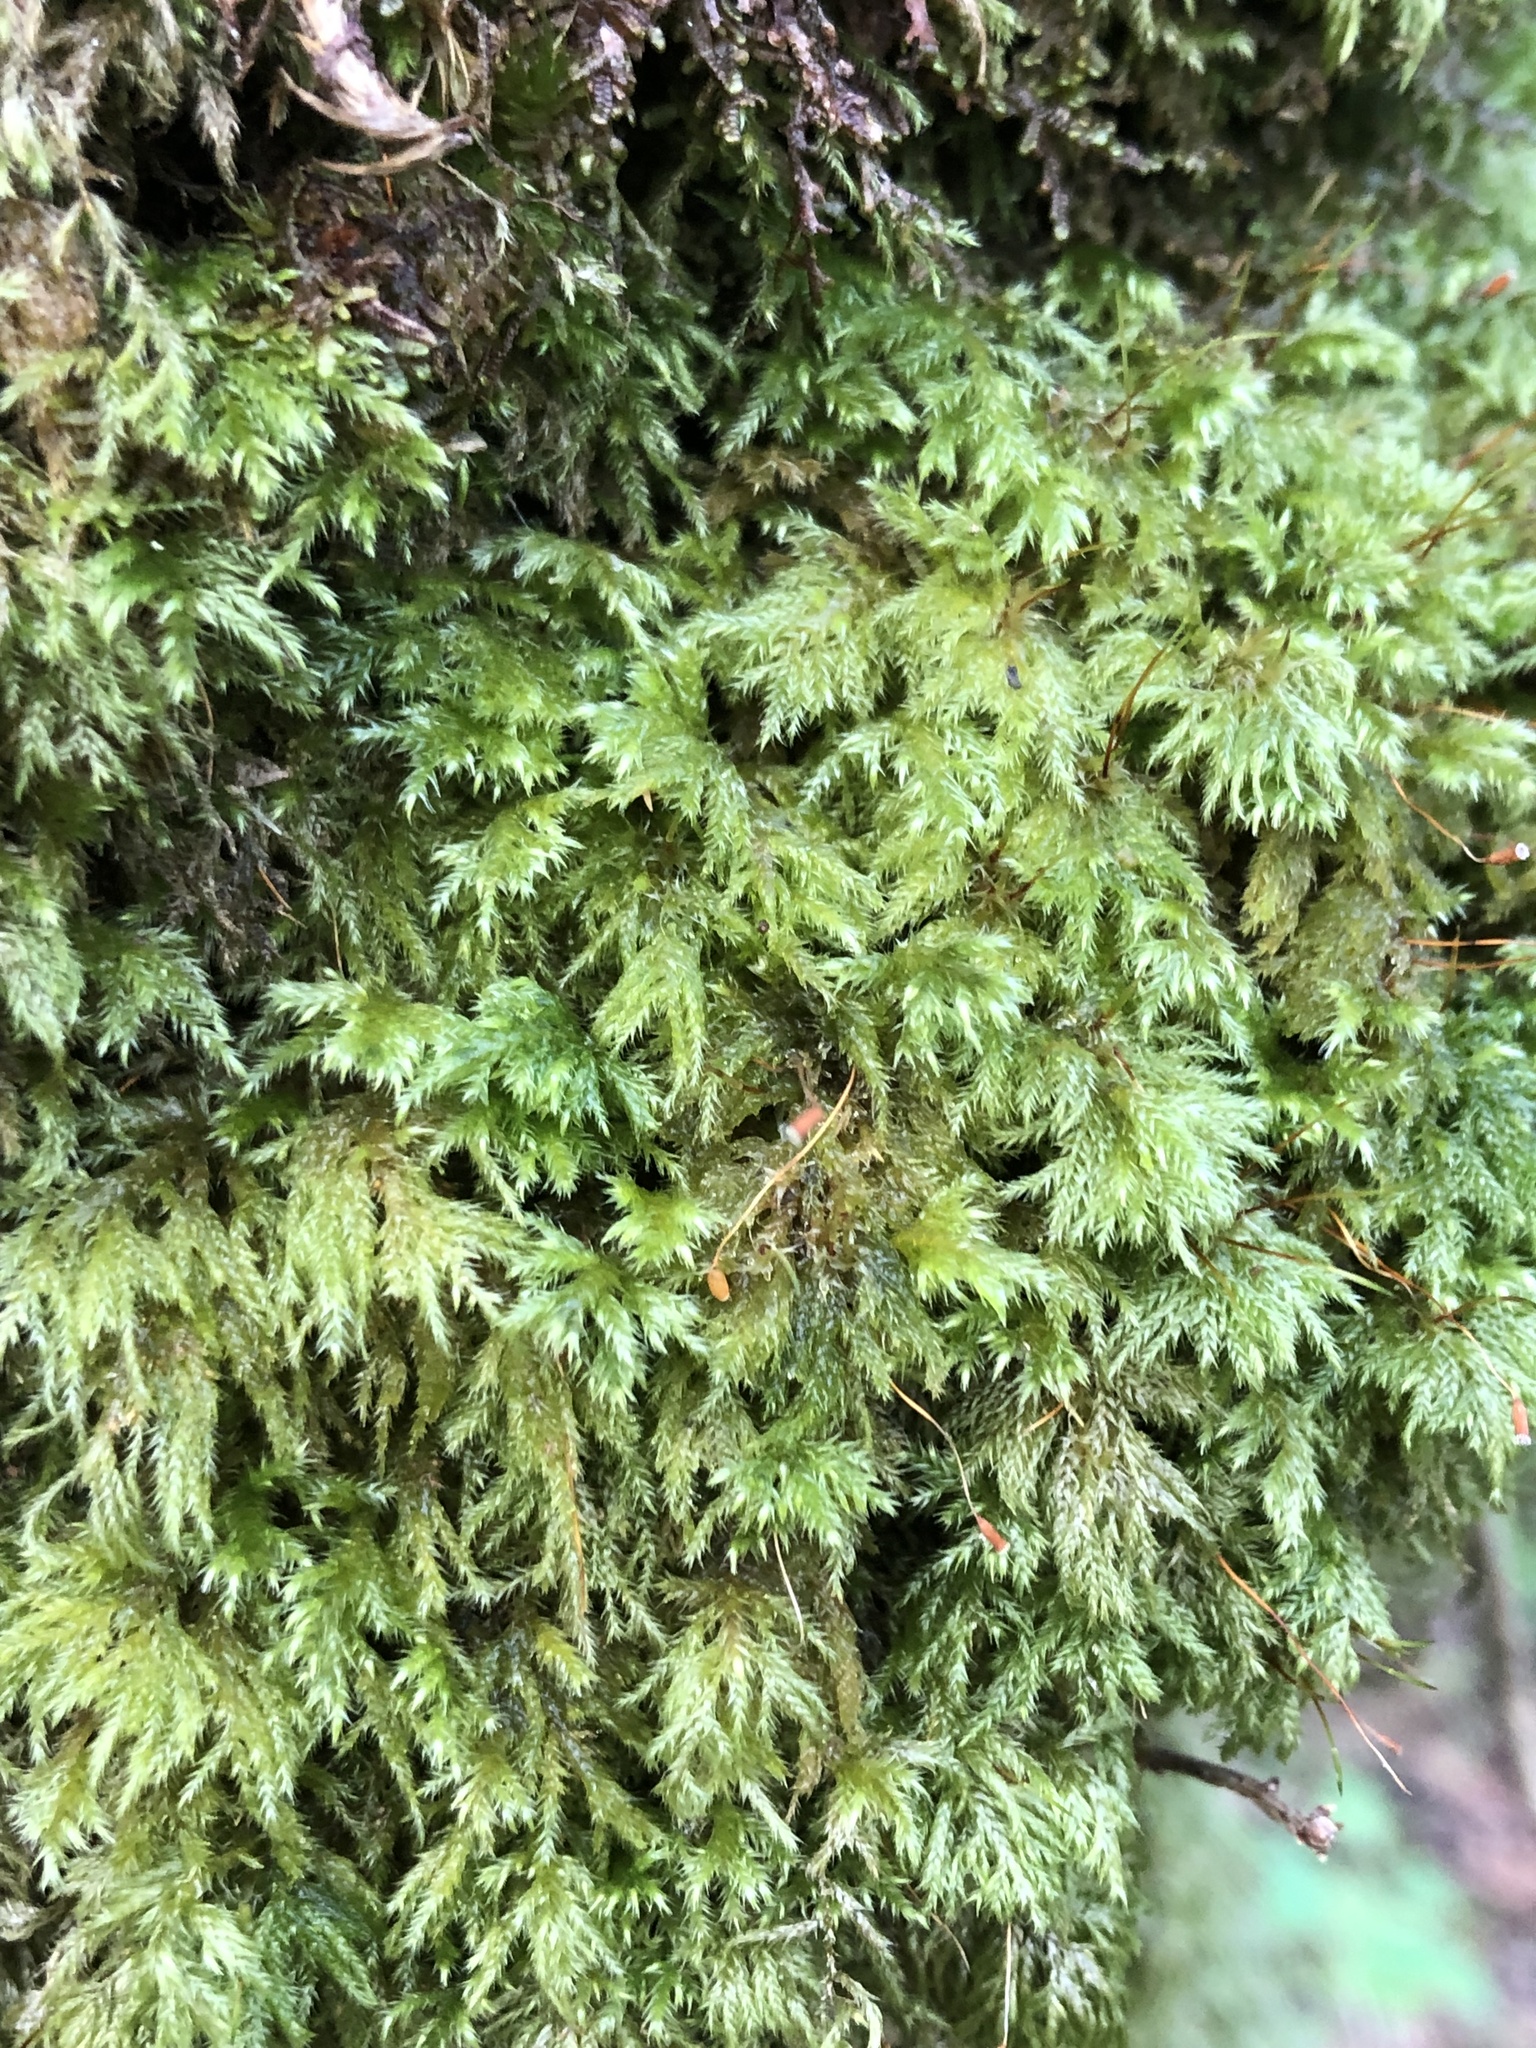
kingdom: Plantae
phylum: Bryophyta
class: Bryopsida
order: Hypnales
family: Lembophyllaceae
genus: Pseudisothecium
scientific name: Pseudisothecium myosuroides
